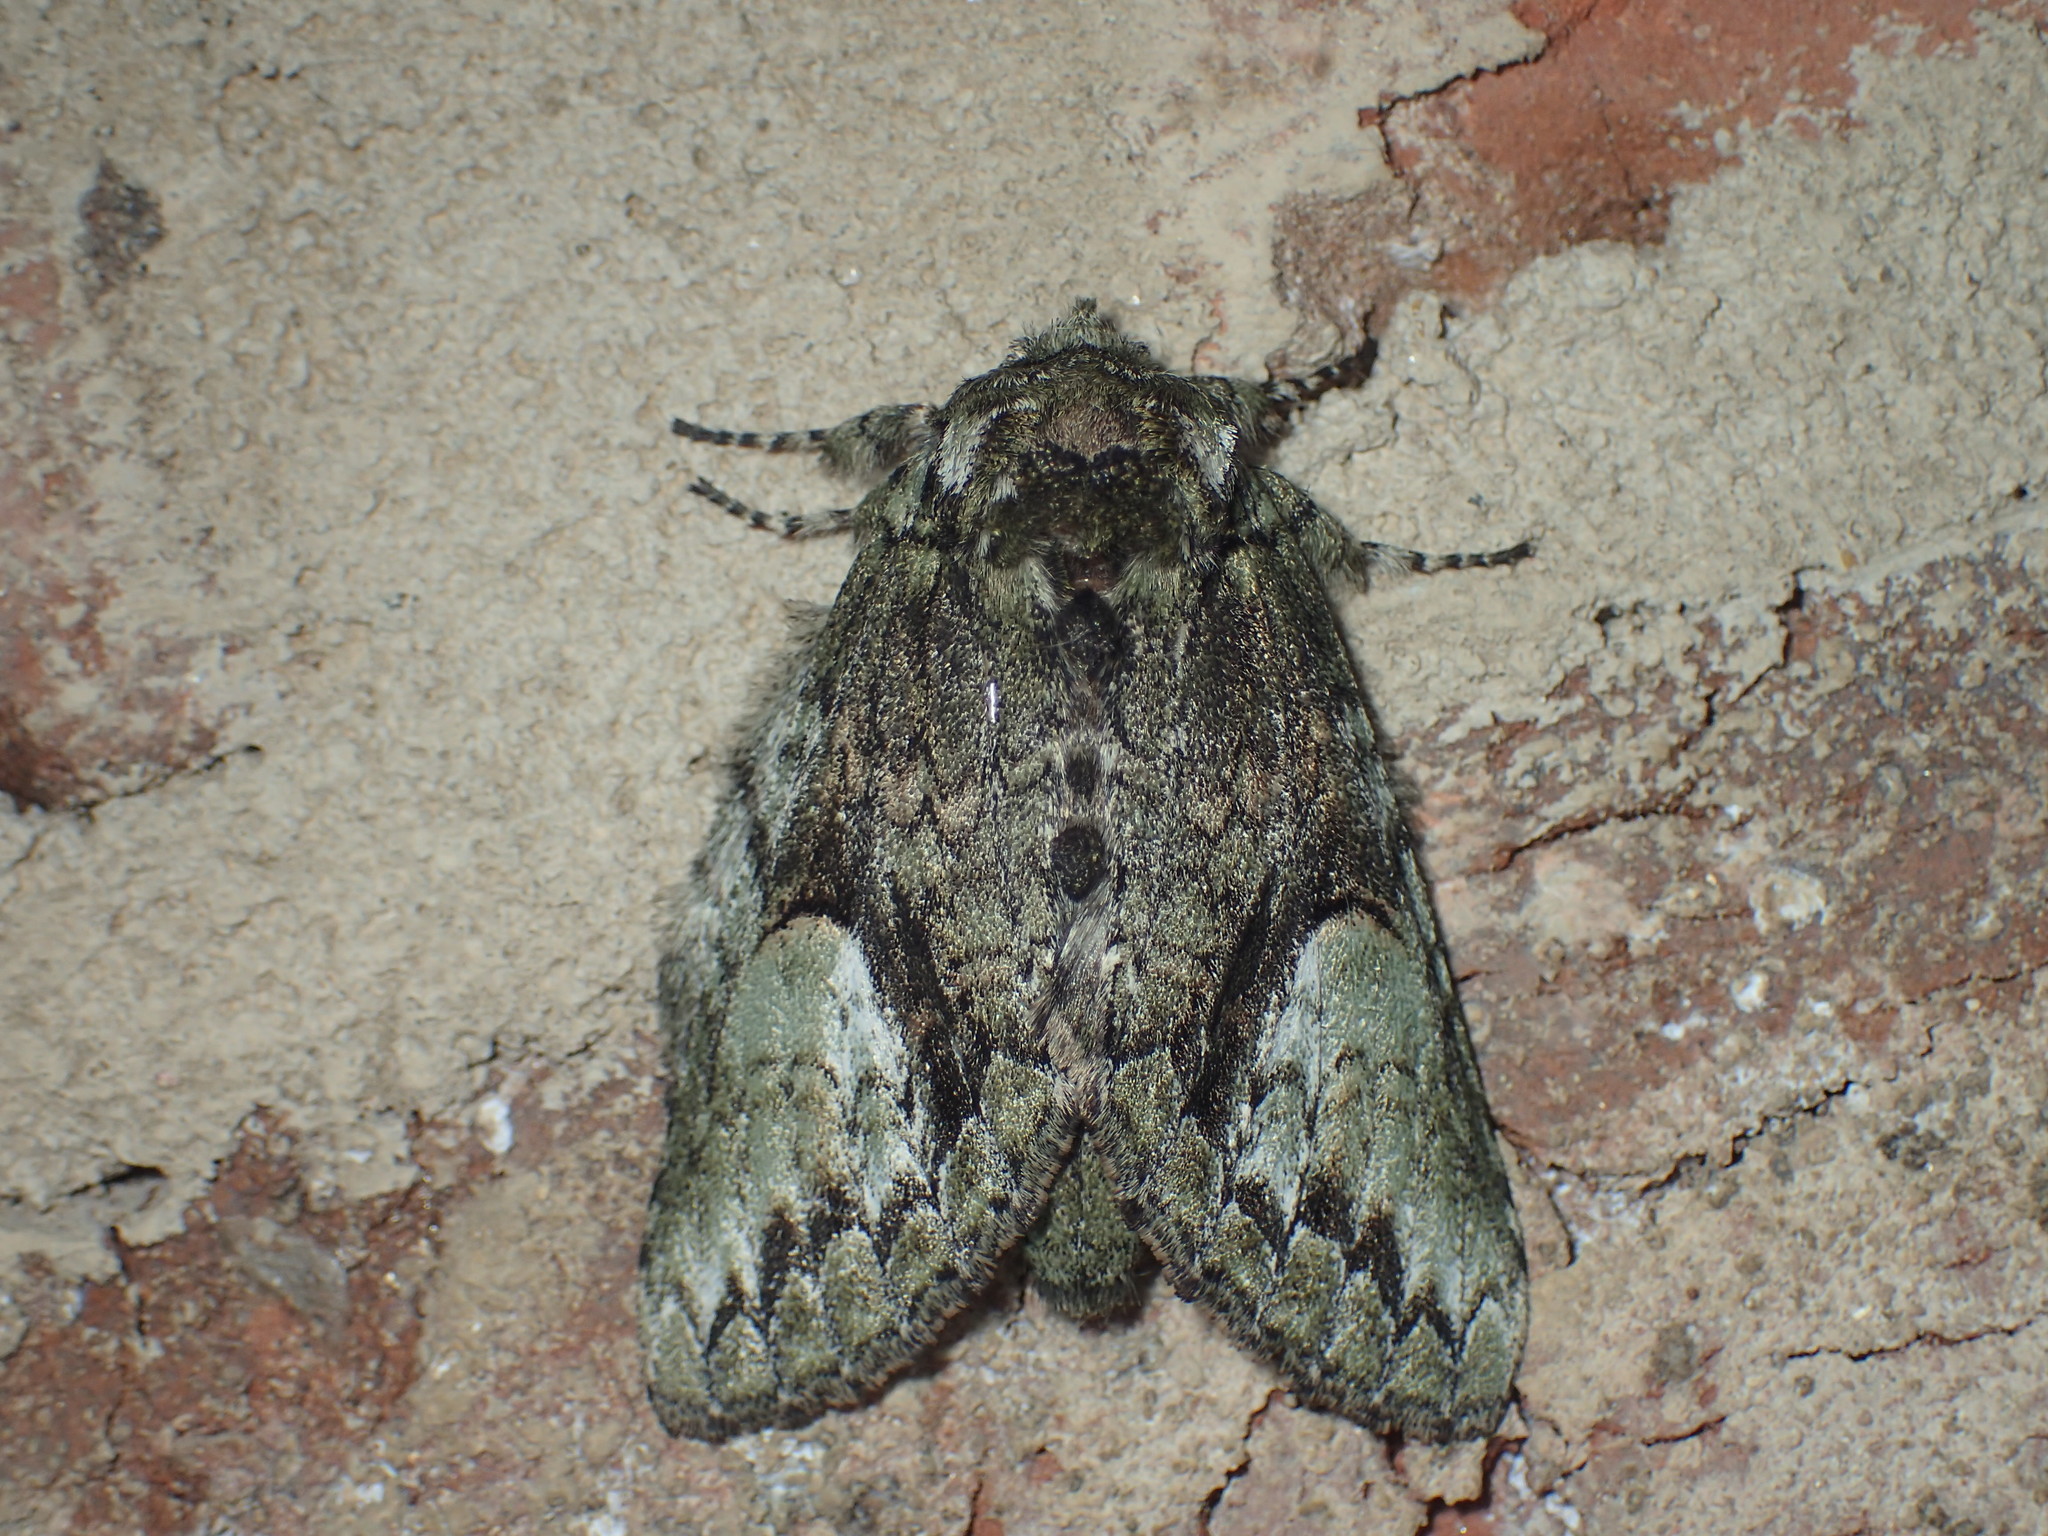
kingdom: Animalia
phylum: Arthropoda
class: Insecta
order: Lepidoptera
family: Notodontidae
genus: Heterocampa
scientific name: Heterocampa
